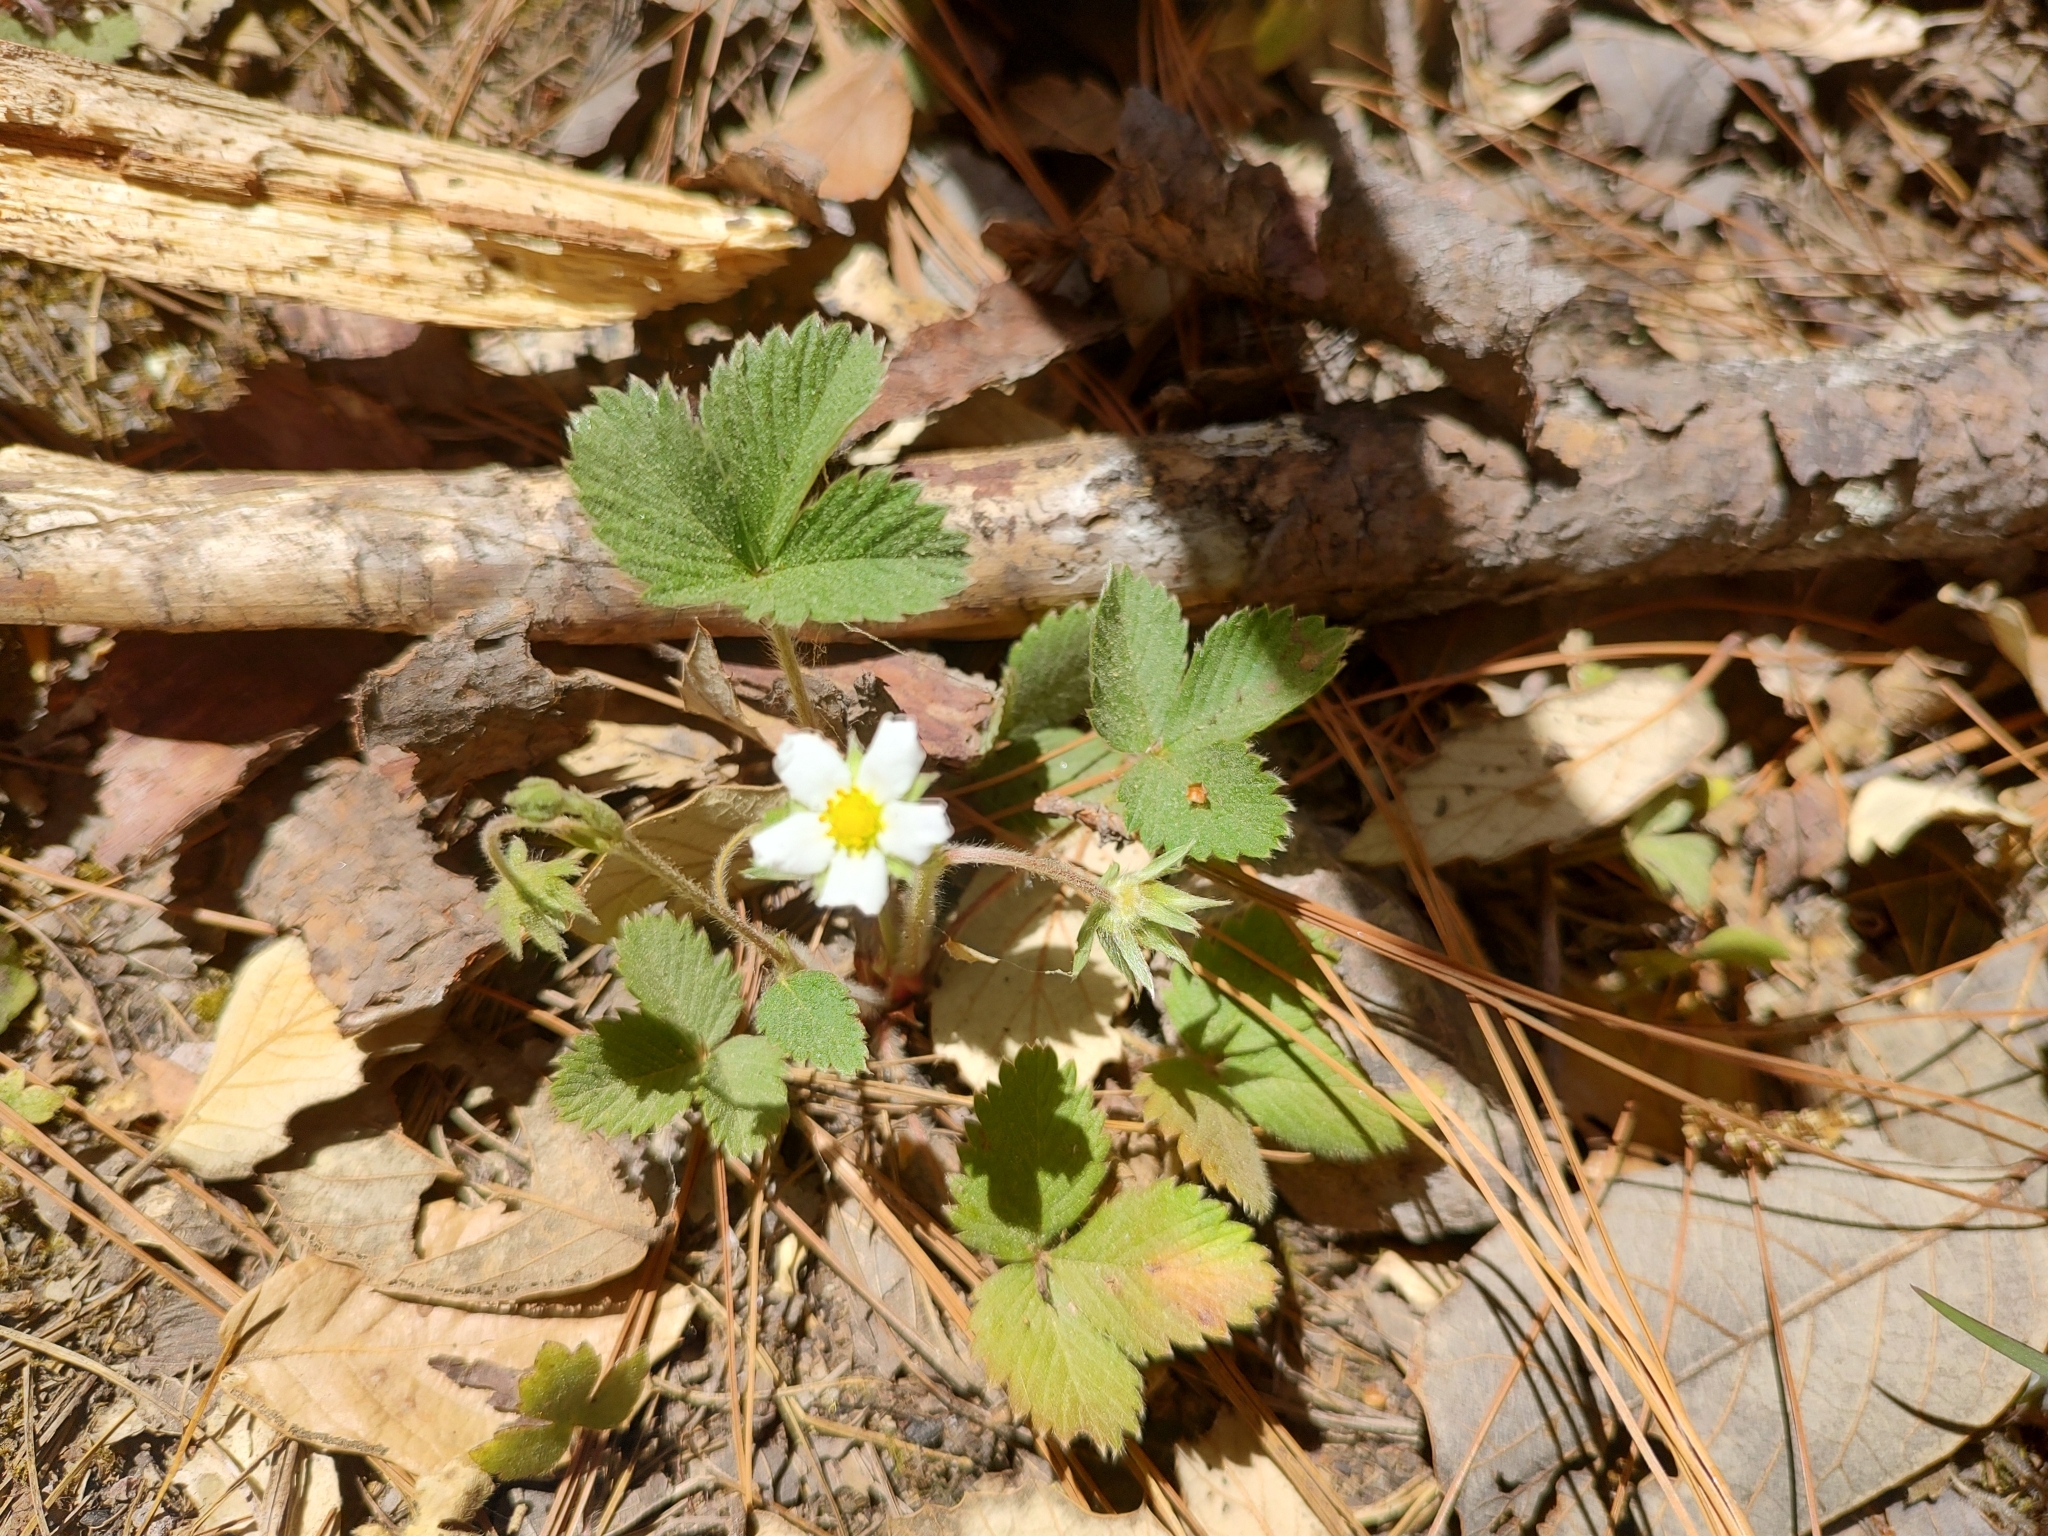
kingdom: Plantae
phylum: Tracheophyta
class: Magnoliopsida
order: Rosales
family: Rosaceae
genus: Fragaria
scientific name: Fragaria vesca
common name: Wild strawberry
